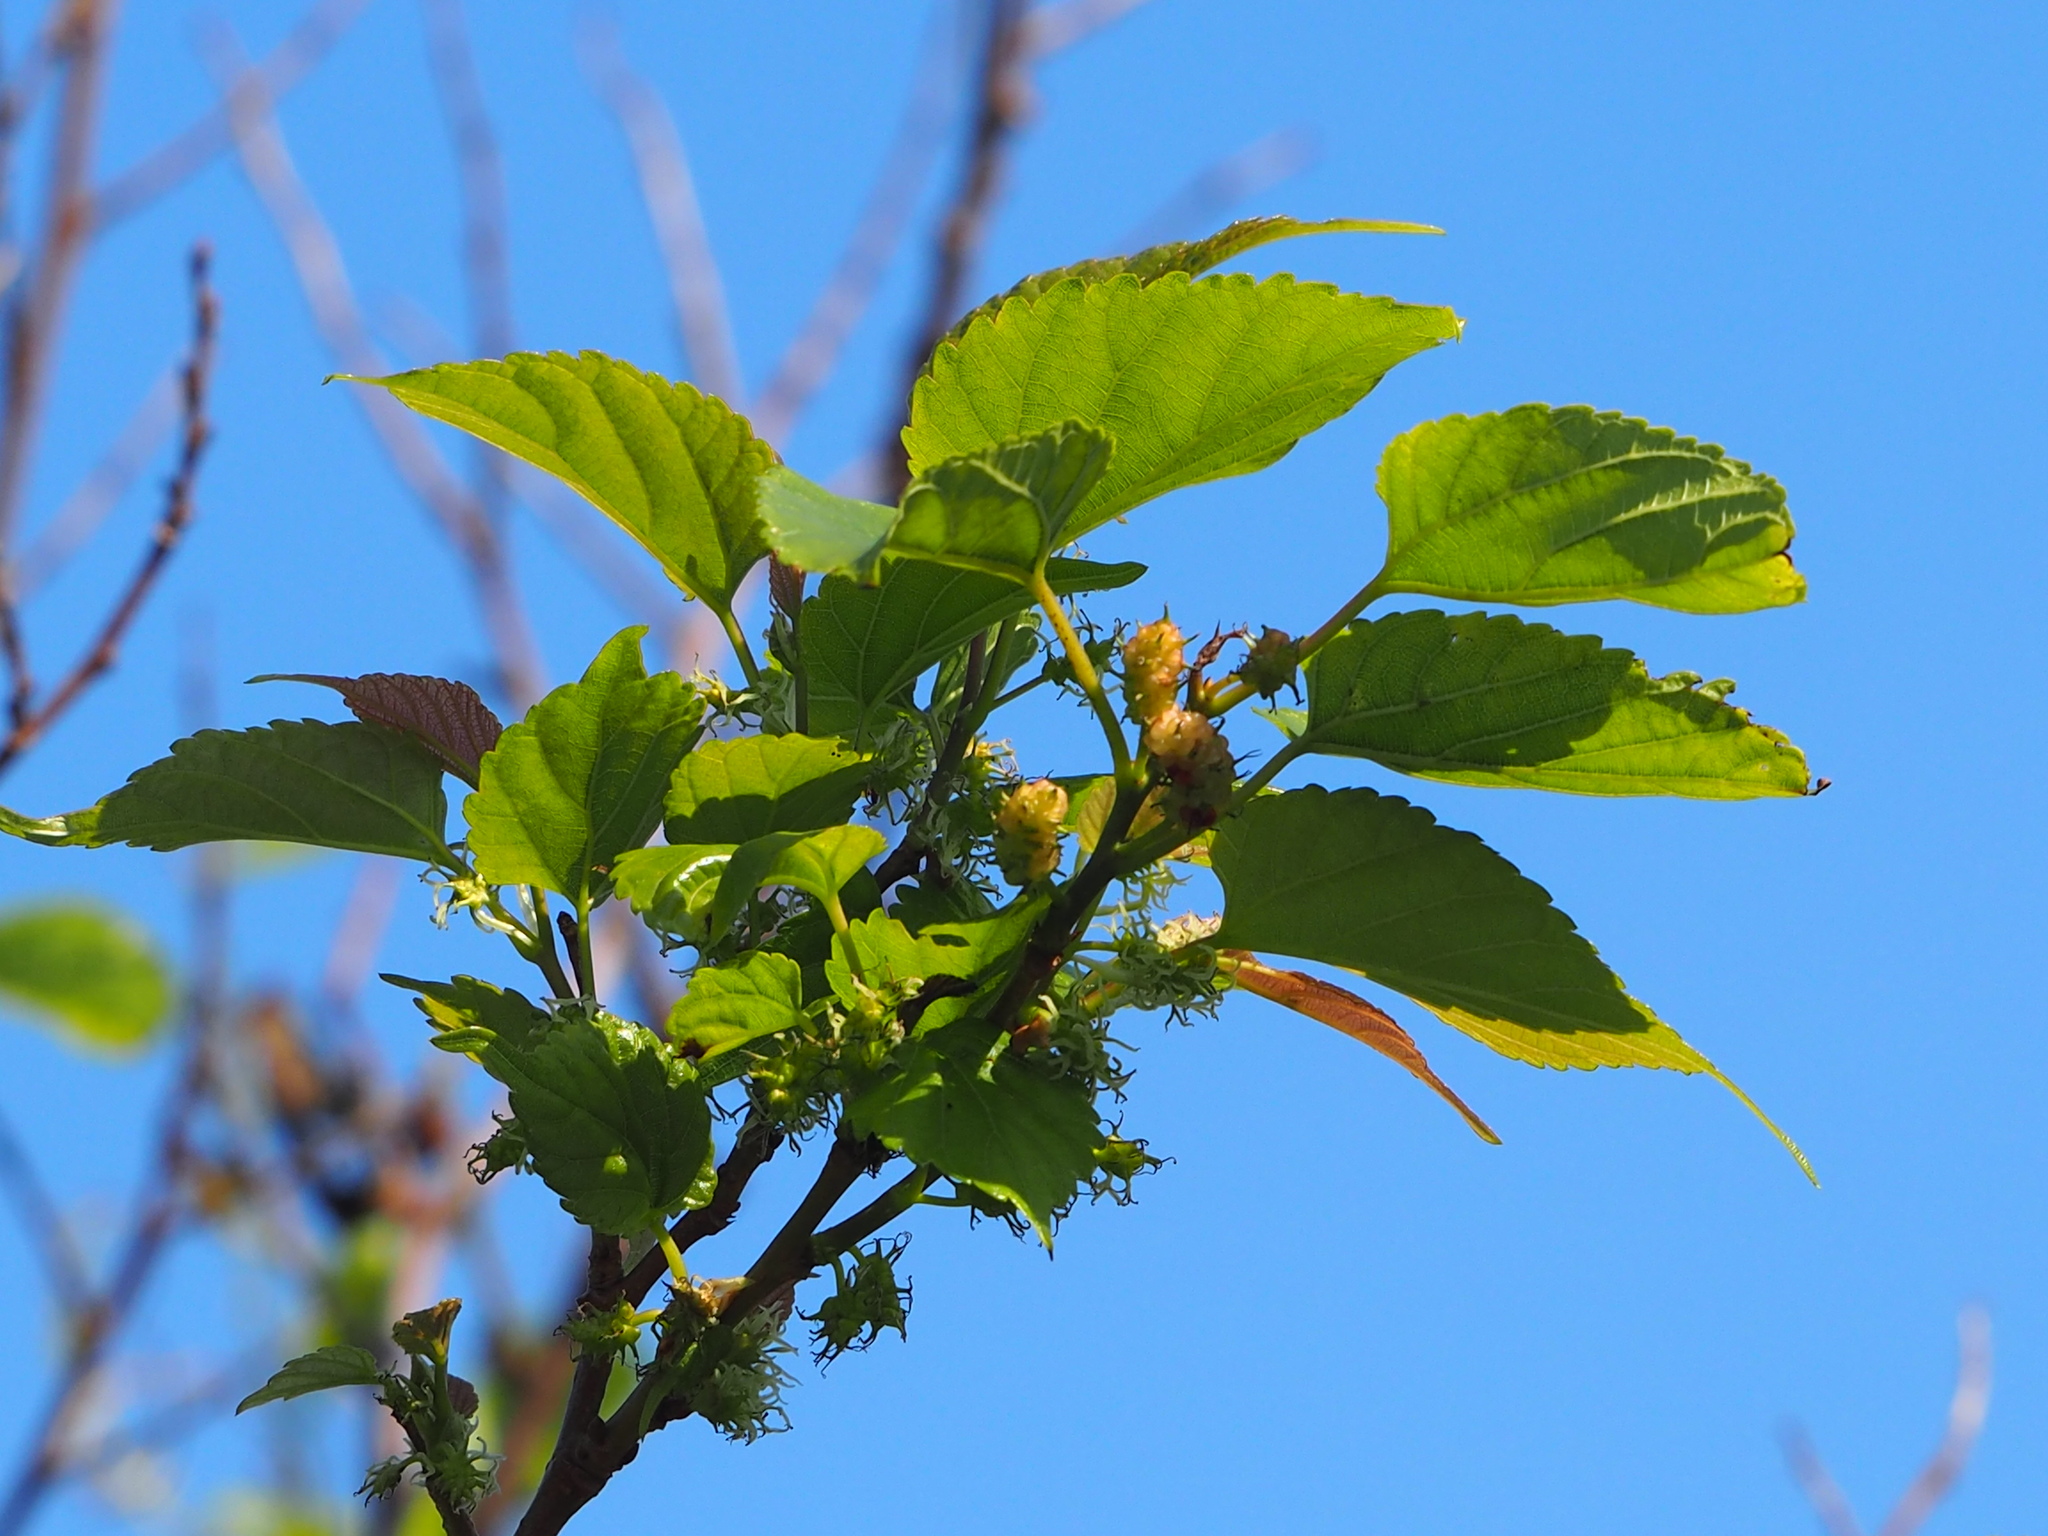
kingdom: Plantae
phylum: Tracheophyta
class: Magnoliopsida
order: Rosales
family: Moraceae
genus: Morus
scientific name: Morus indica
